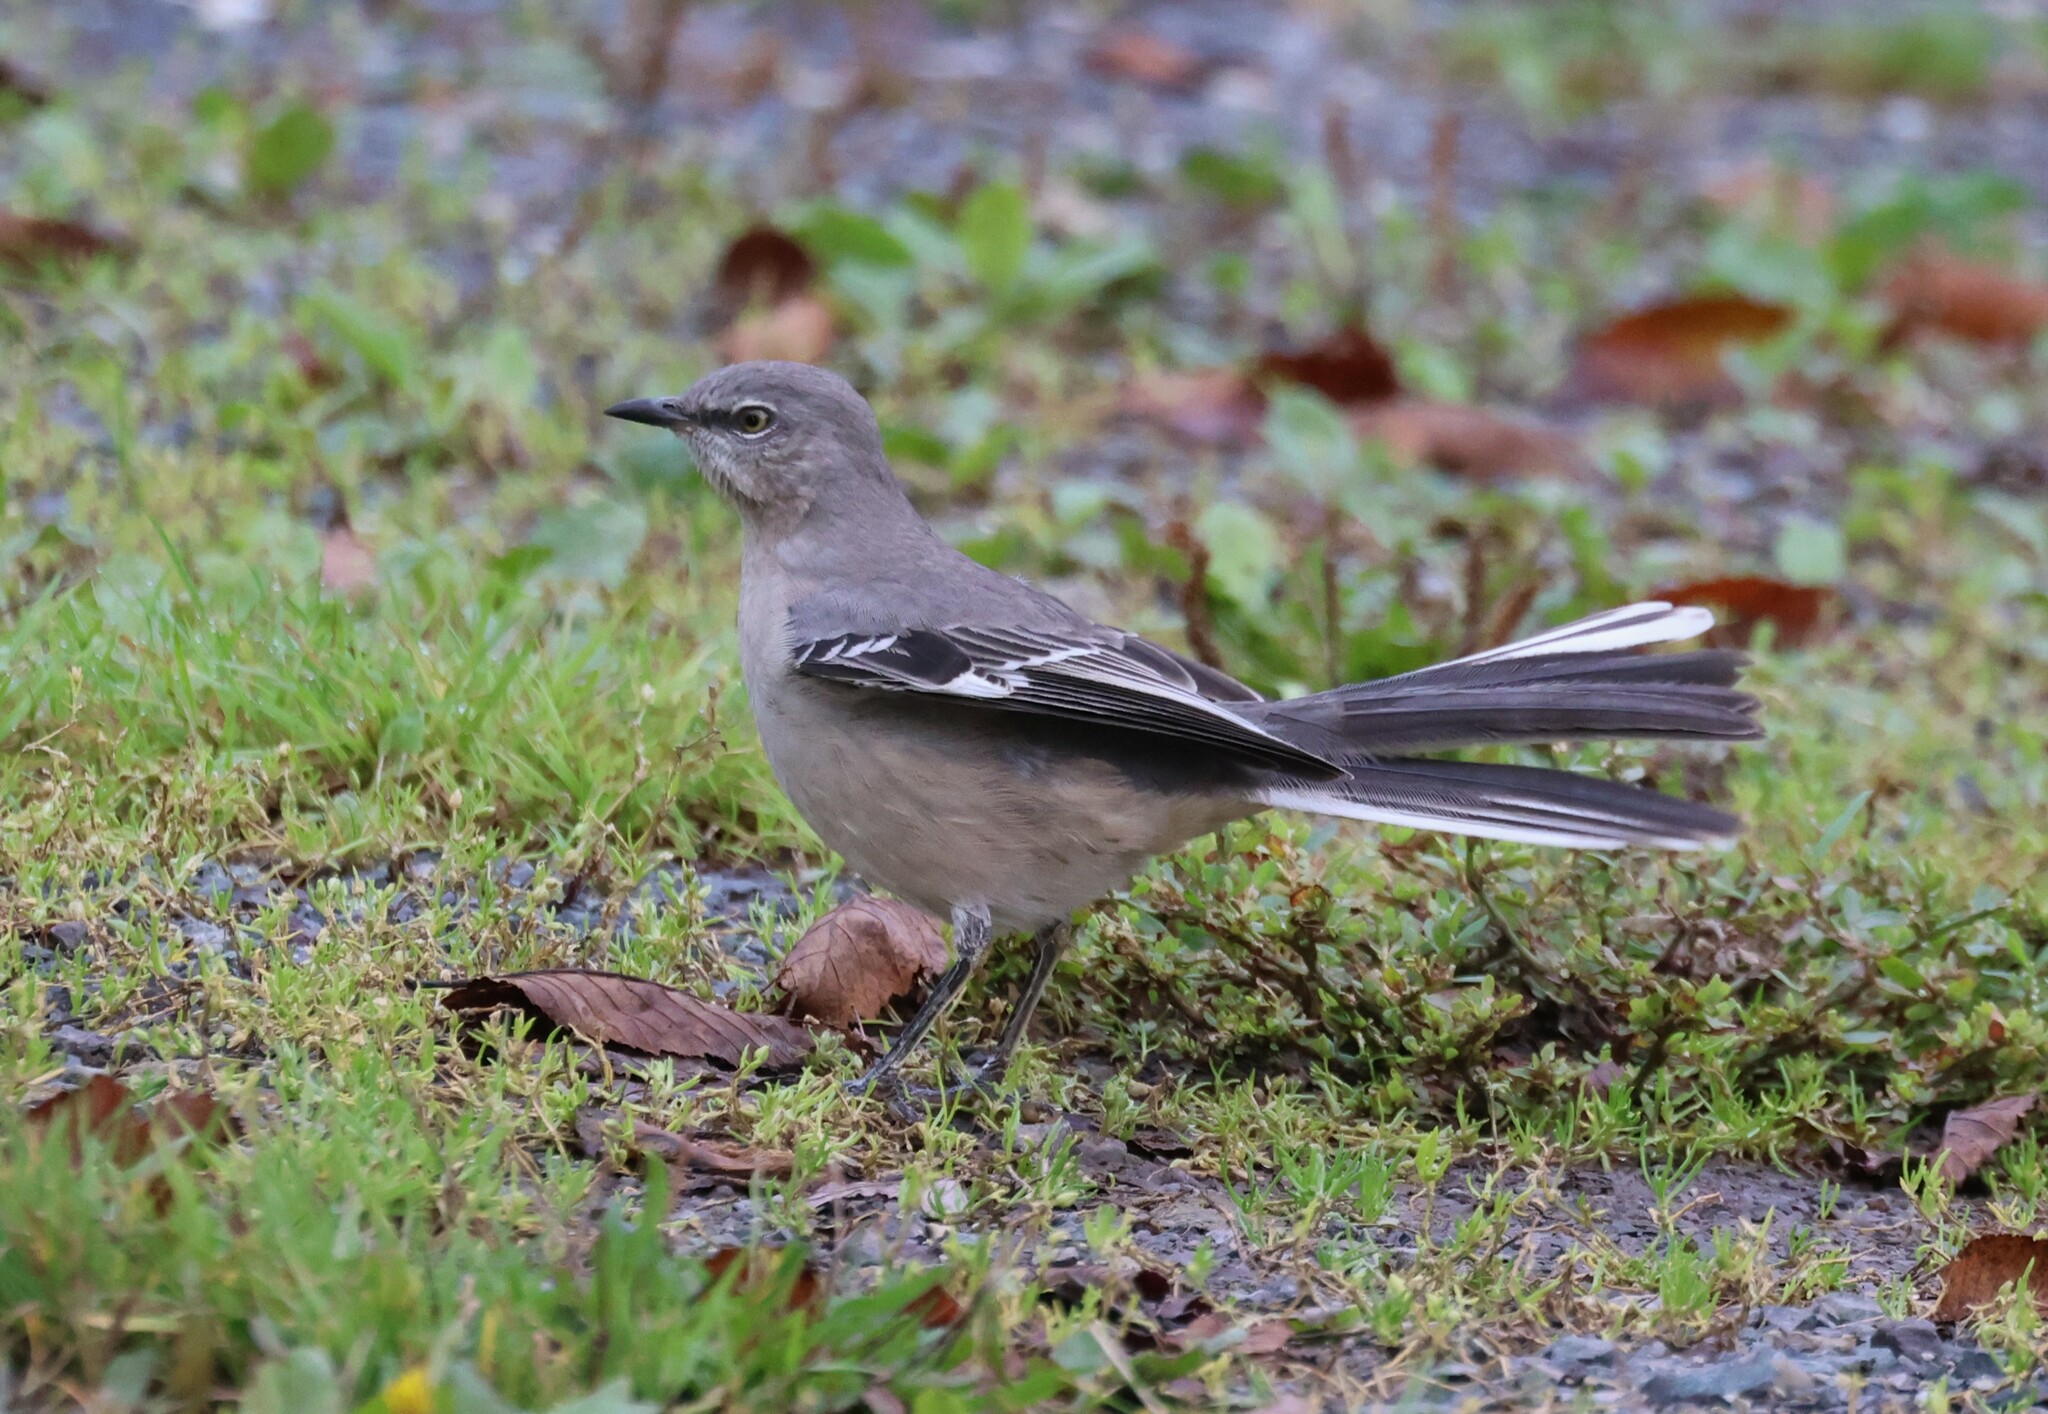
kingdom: Animalia
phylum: Chordata
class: Aves
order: Passeriformes
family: Mimidae
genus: Mimus
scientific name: Mimus polyglottos
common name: Northern mockingbird
